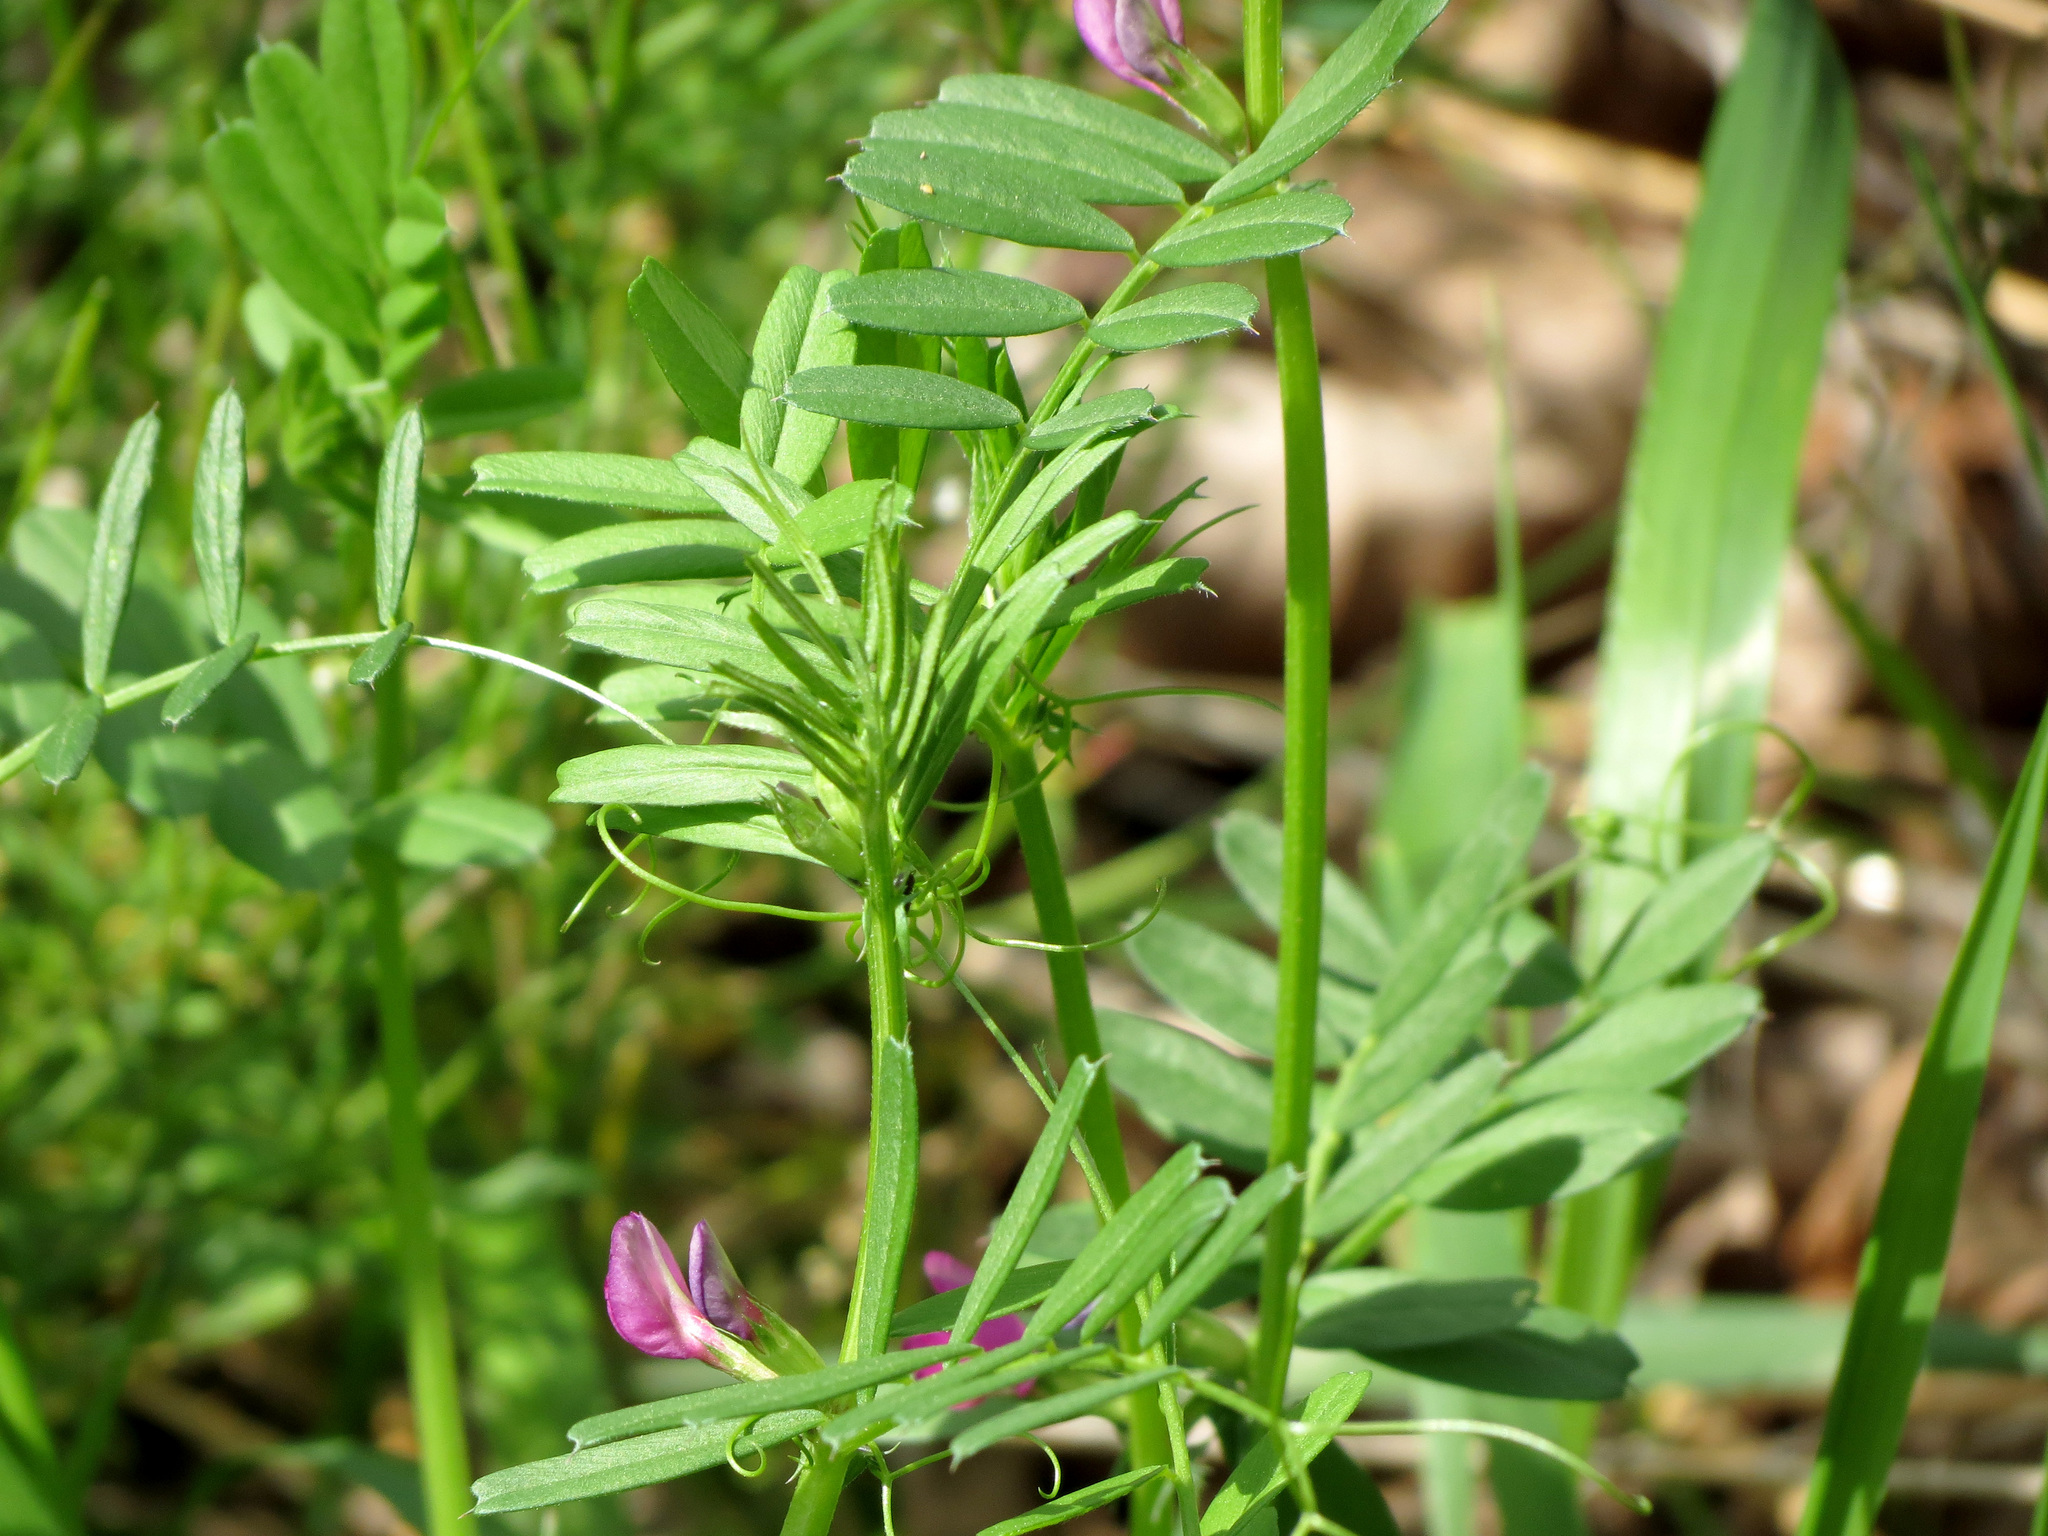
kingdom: Plantae
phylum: Tracheophyta
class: Magnoliopsida
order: Fabales
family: Fabaceae
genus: Vicia
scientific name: Vicia sativa
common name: Garden vetch
